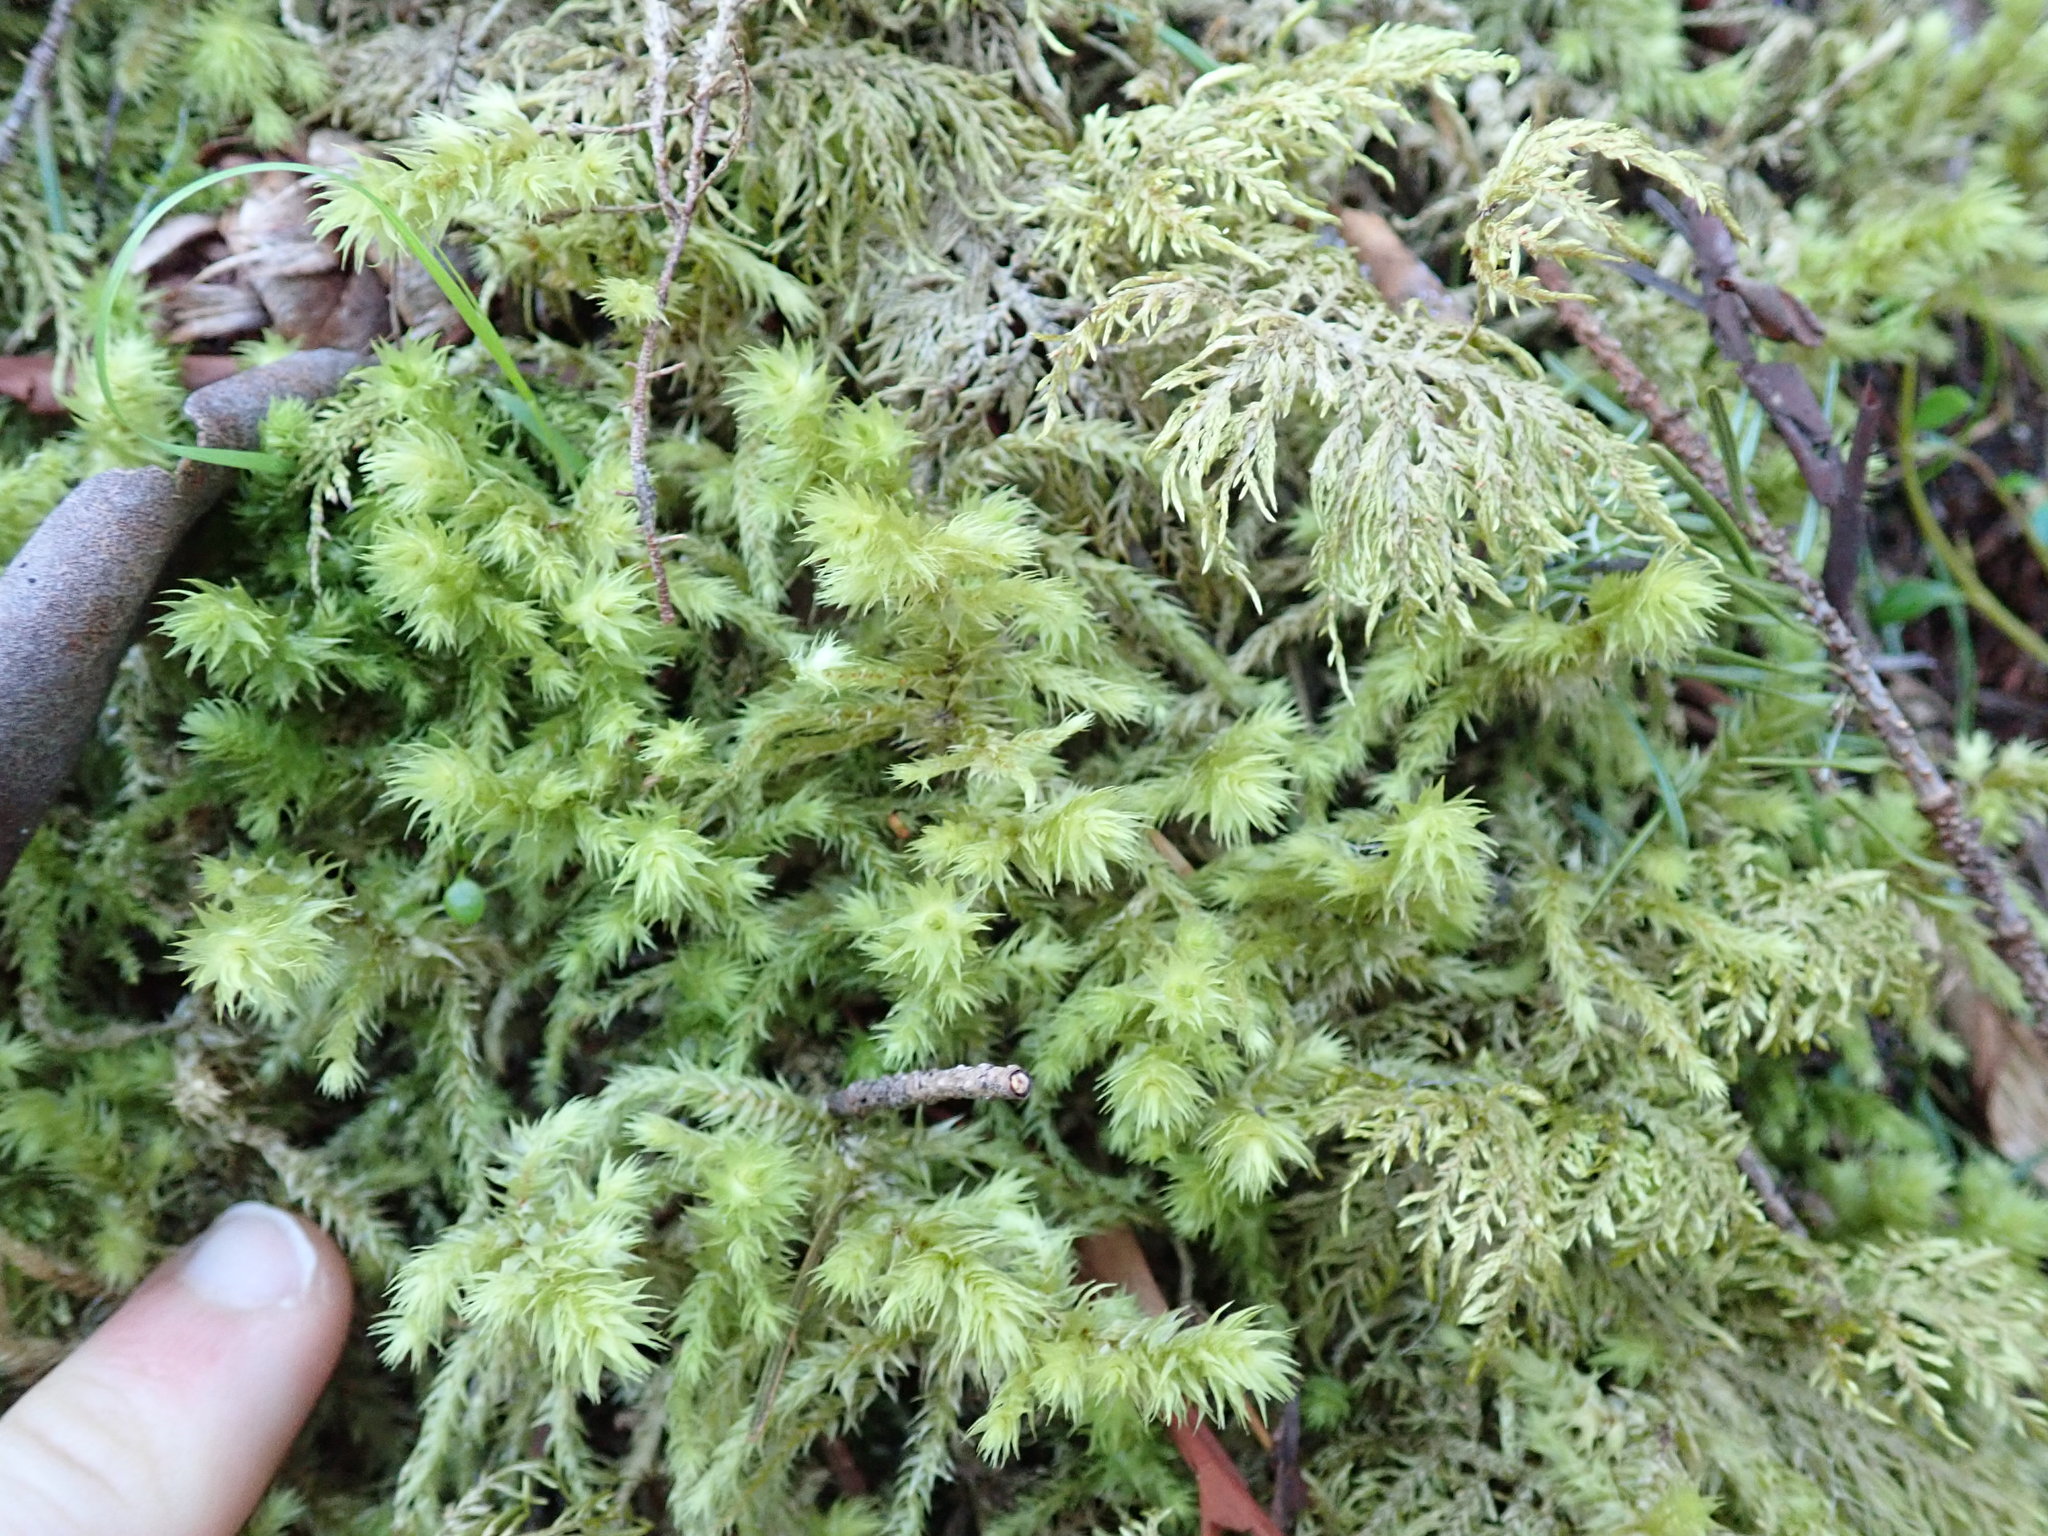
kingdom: Plantae
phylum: Bryophyta
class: Bryopsida
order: Hypnales
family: Hylocomiaceae
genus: Hylocomiadelphus
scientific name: Hylocomiadelphus triquetrus
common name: Rough goose neck moss
